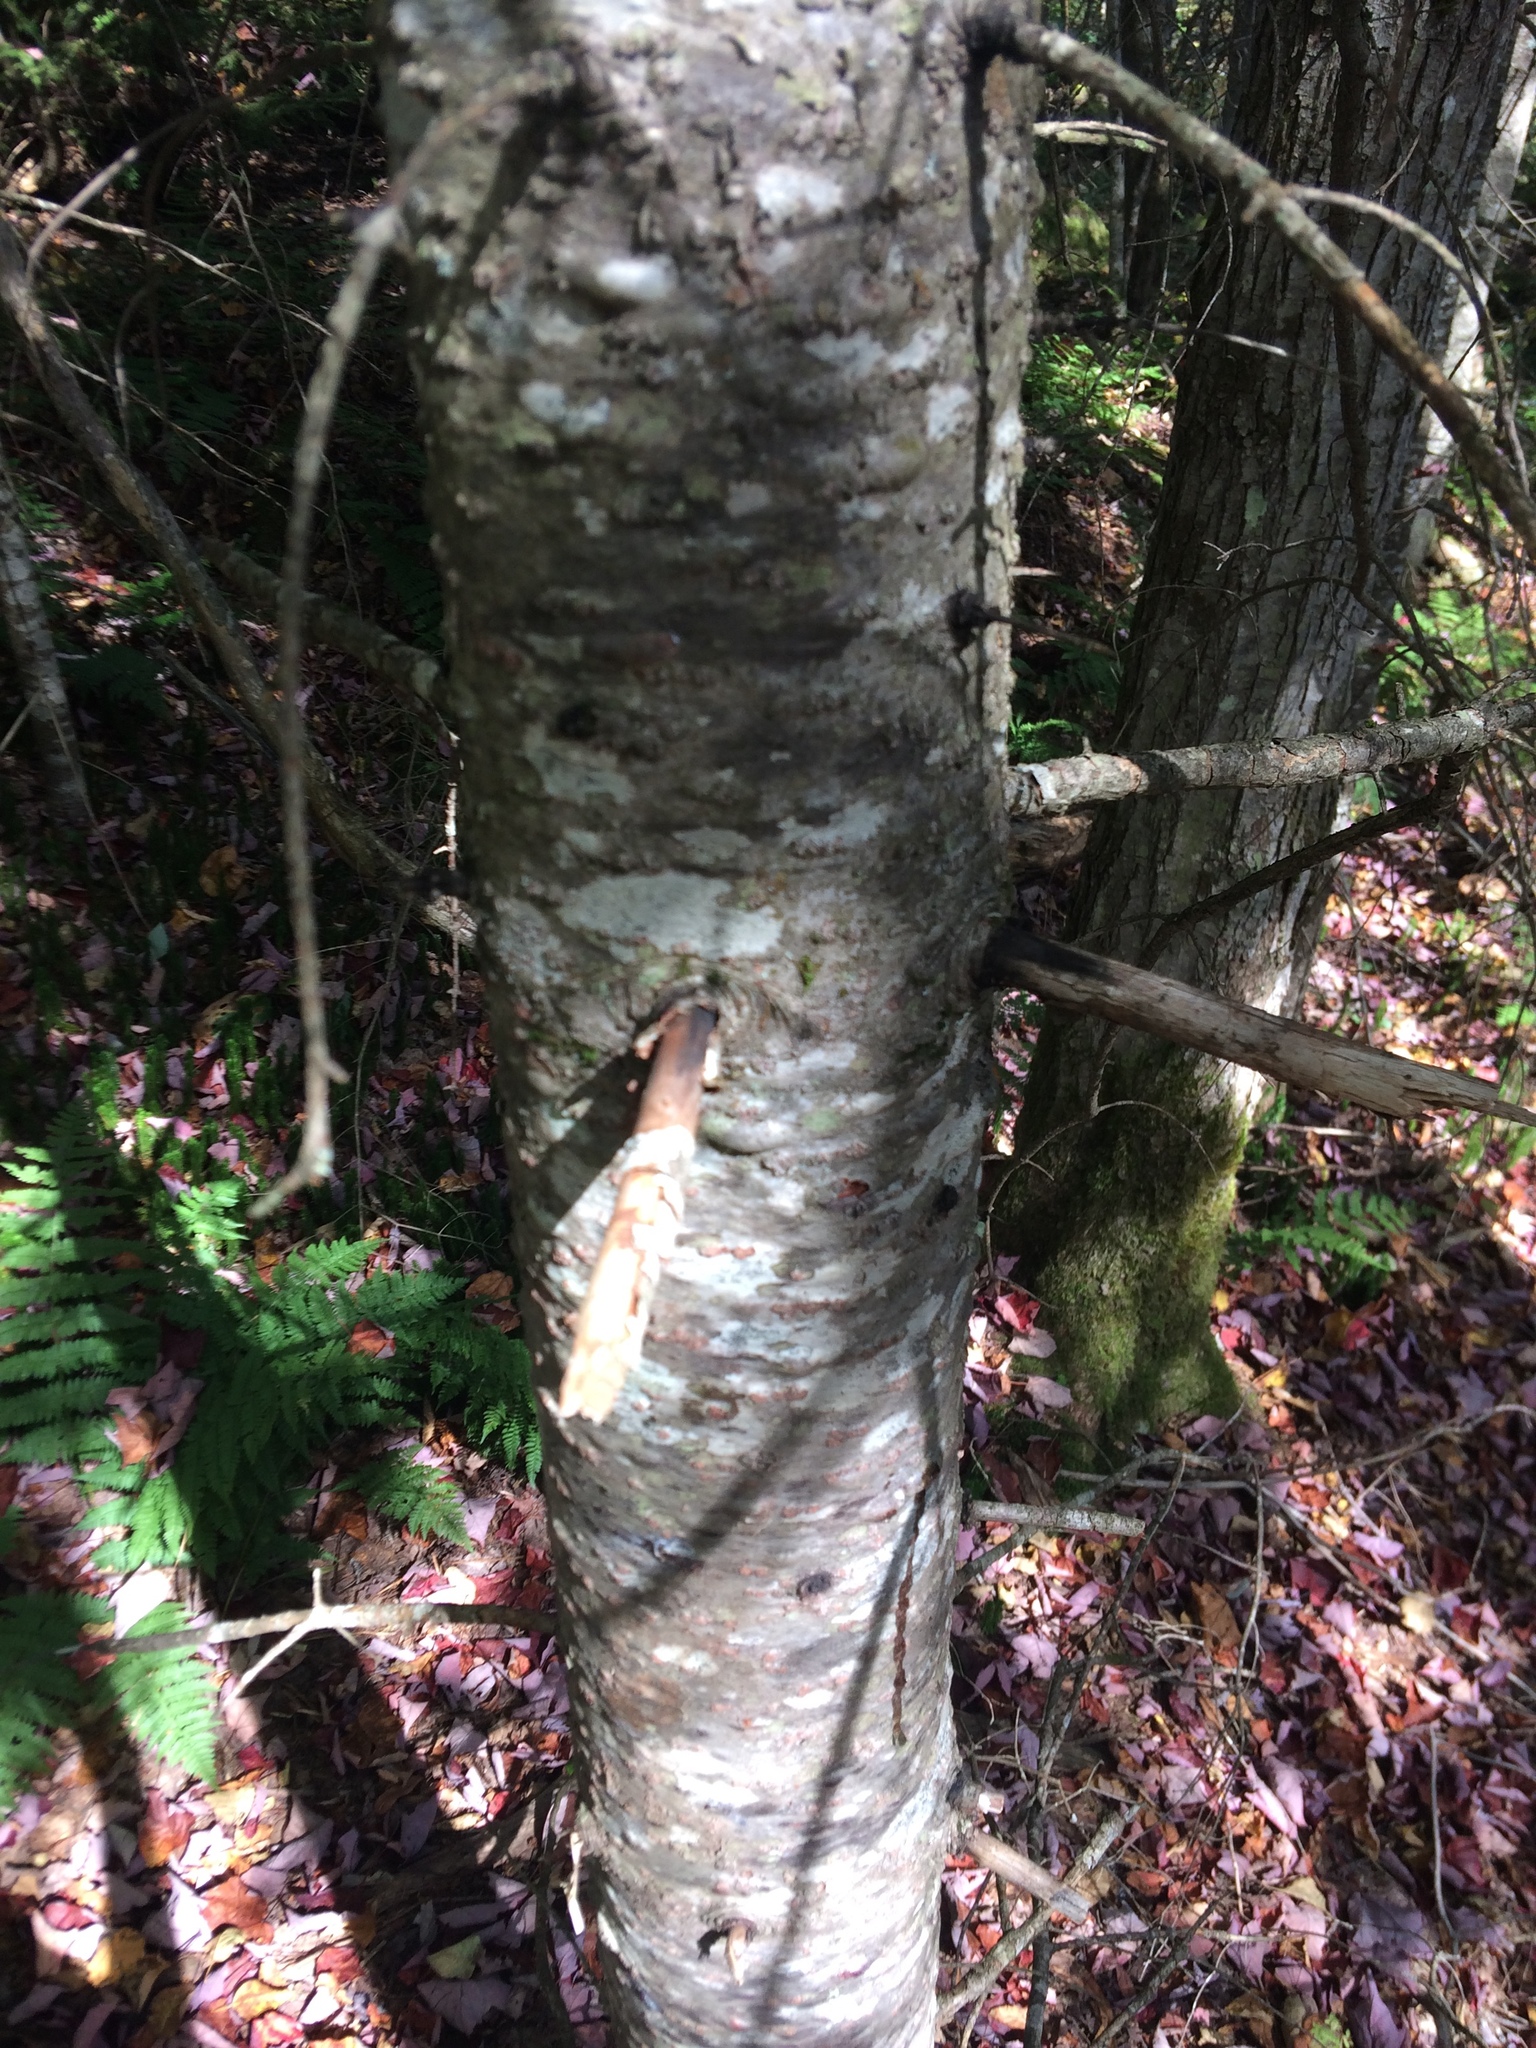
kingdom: Plantae
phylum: Tracheophyta
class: Pinopsida
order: Pinales
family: Pinaceae
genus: Abies
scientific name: Abies balsamea
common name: Balsam fir
